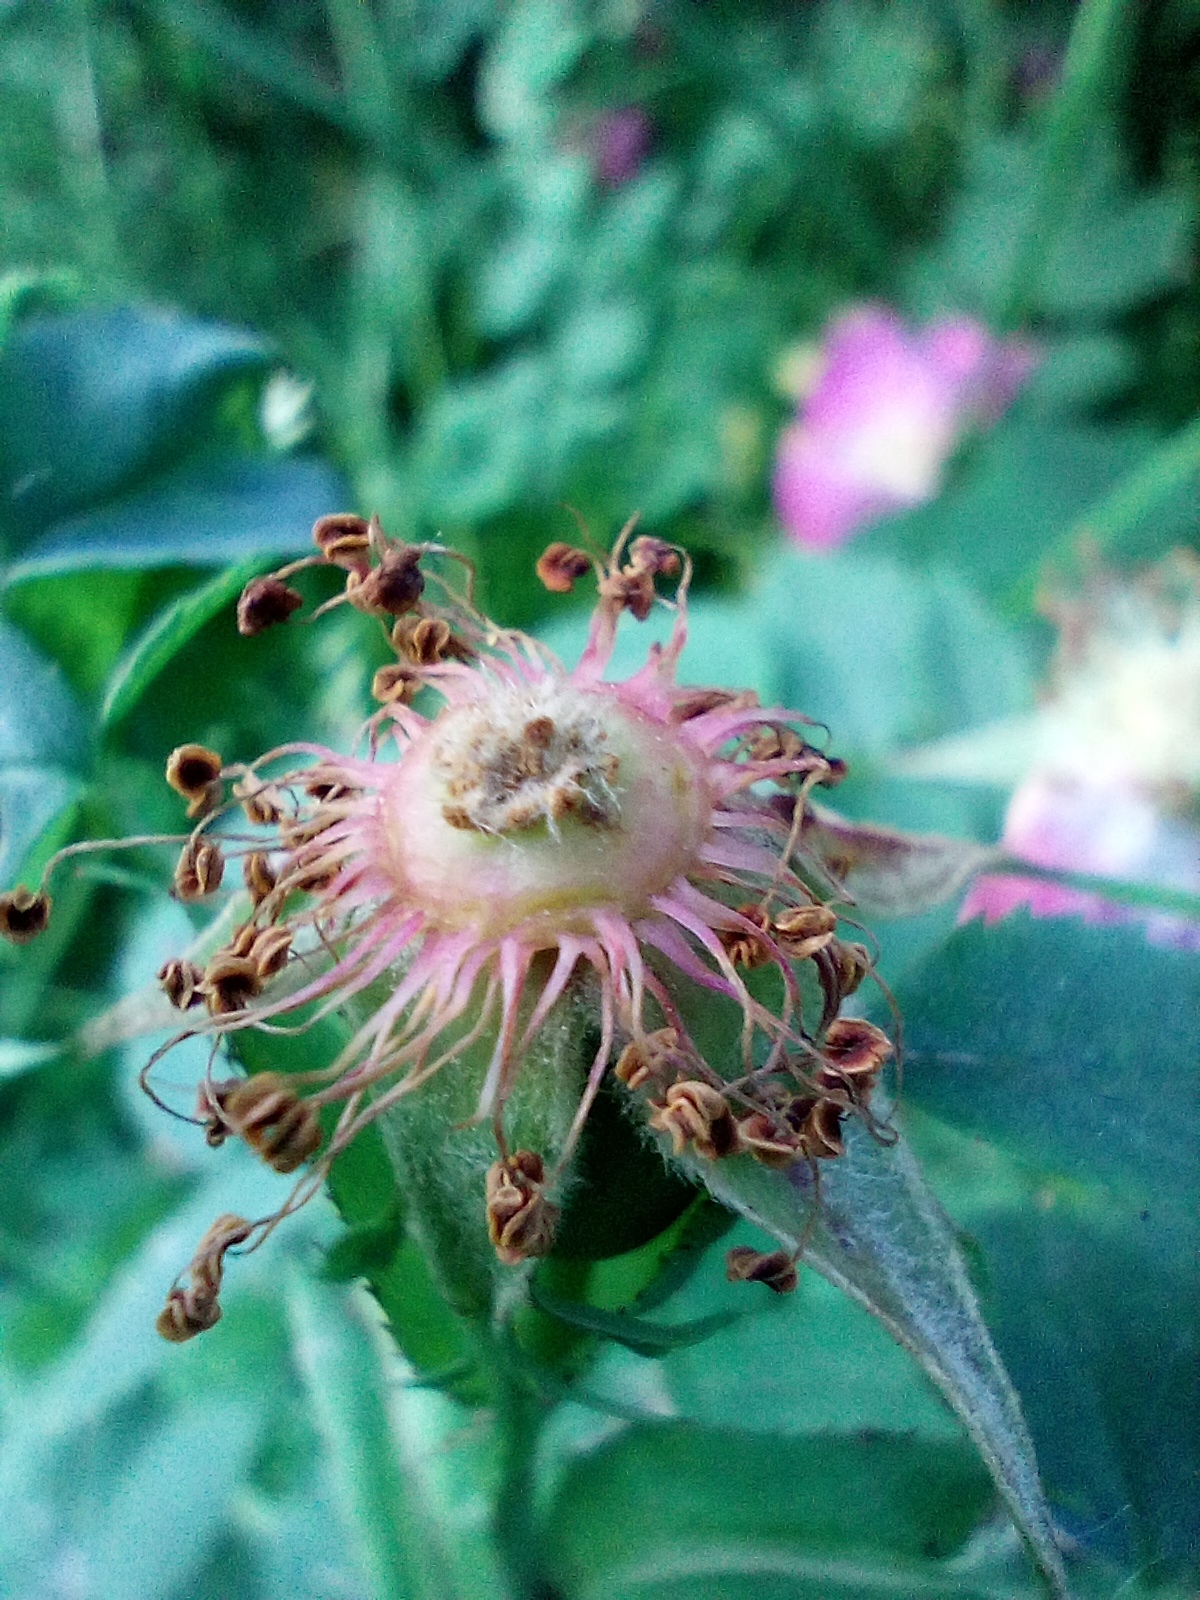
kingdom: Plantae
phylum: Tracheophyta
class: Magnoliopsida
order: Rosales
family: Rosaceae
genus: Rosa
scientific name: Rosa dumalis
